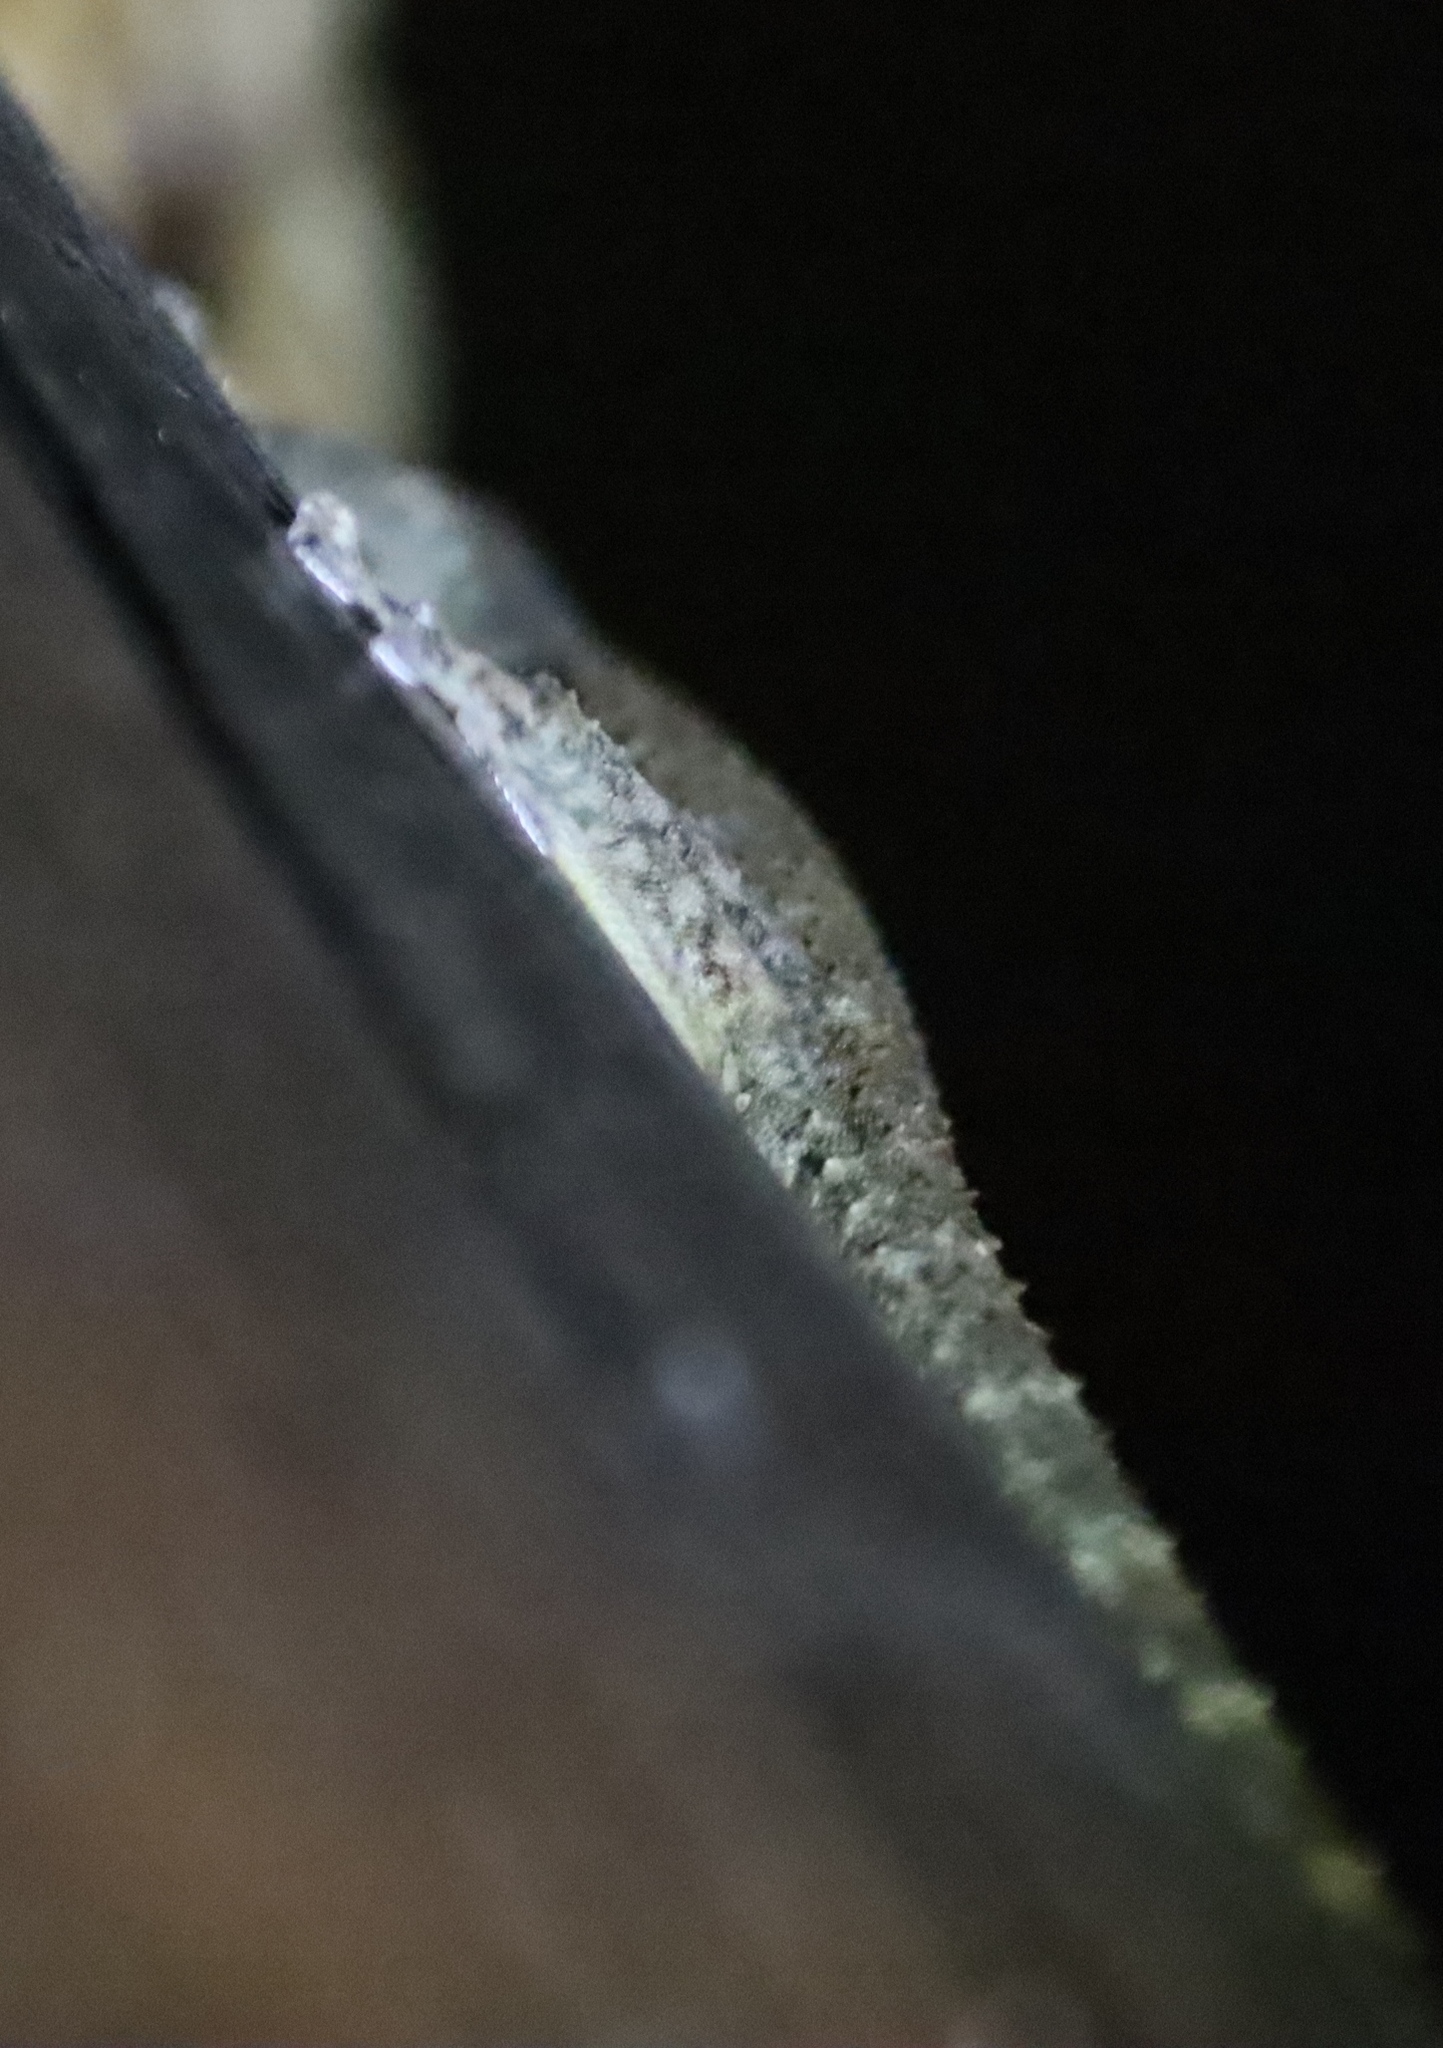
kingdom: Animalia
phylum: Chordata
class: Squamata
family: Gekkonidae
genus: Hemidactylus
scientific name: Hemidactylus mabouia
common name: House gecko
